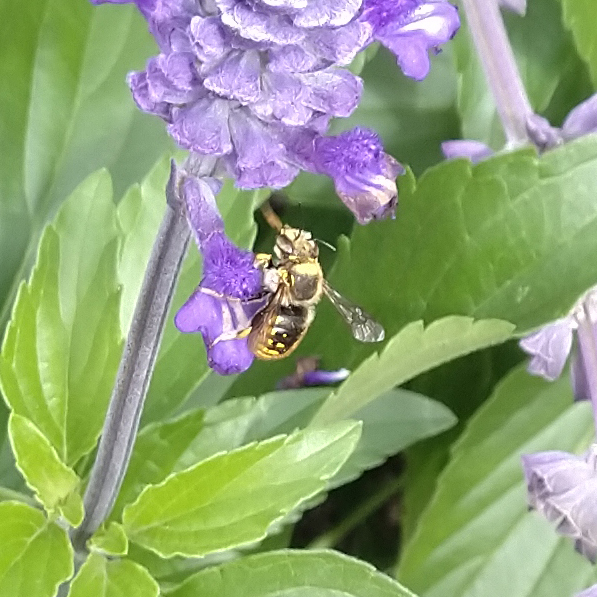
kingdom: Animalia
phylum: Arthropoda
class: Insecta
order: Hymenoptera
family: Megachilidae
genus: Anthidium
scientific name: Anthidium manicatum
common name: Wool carder bee
